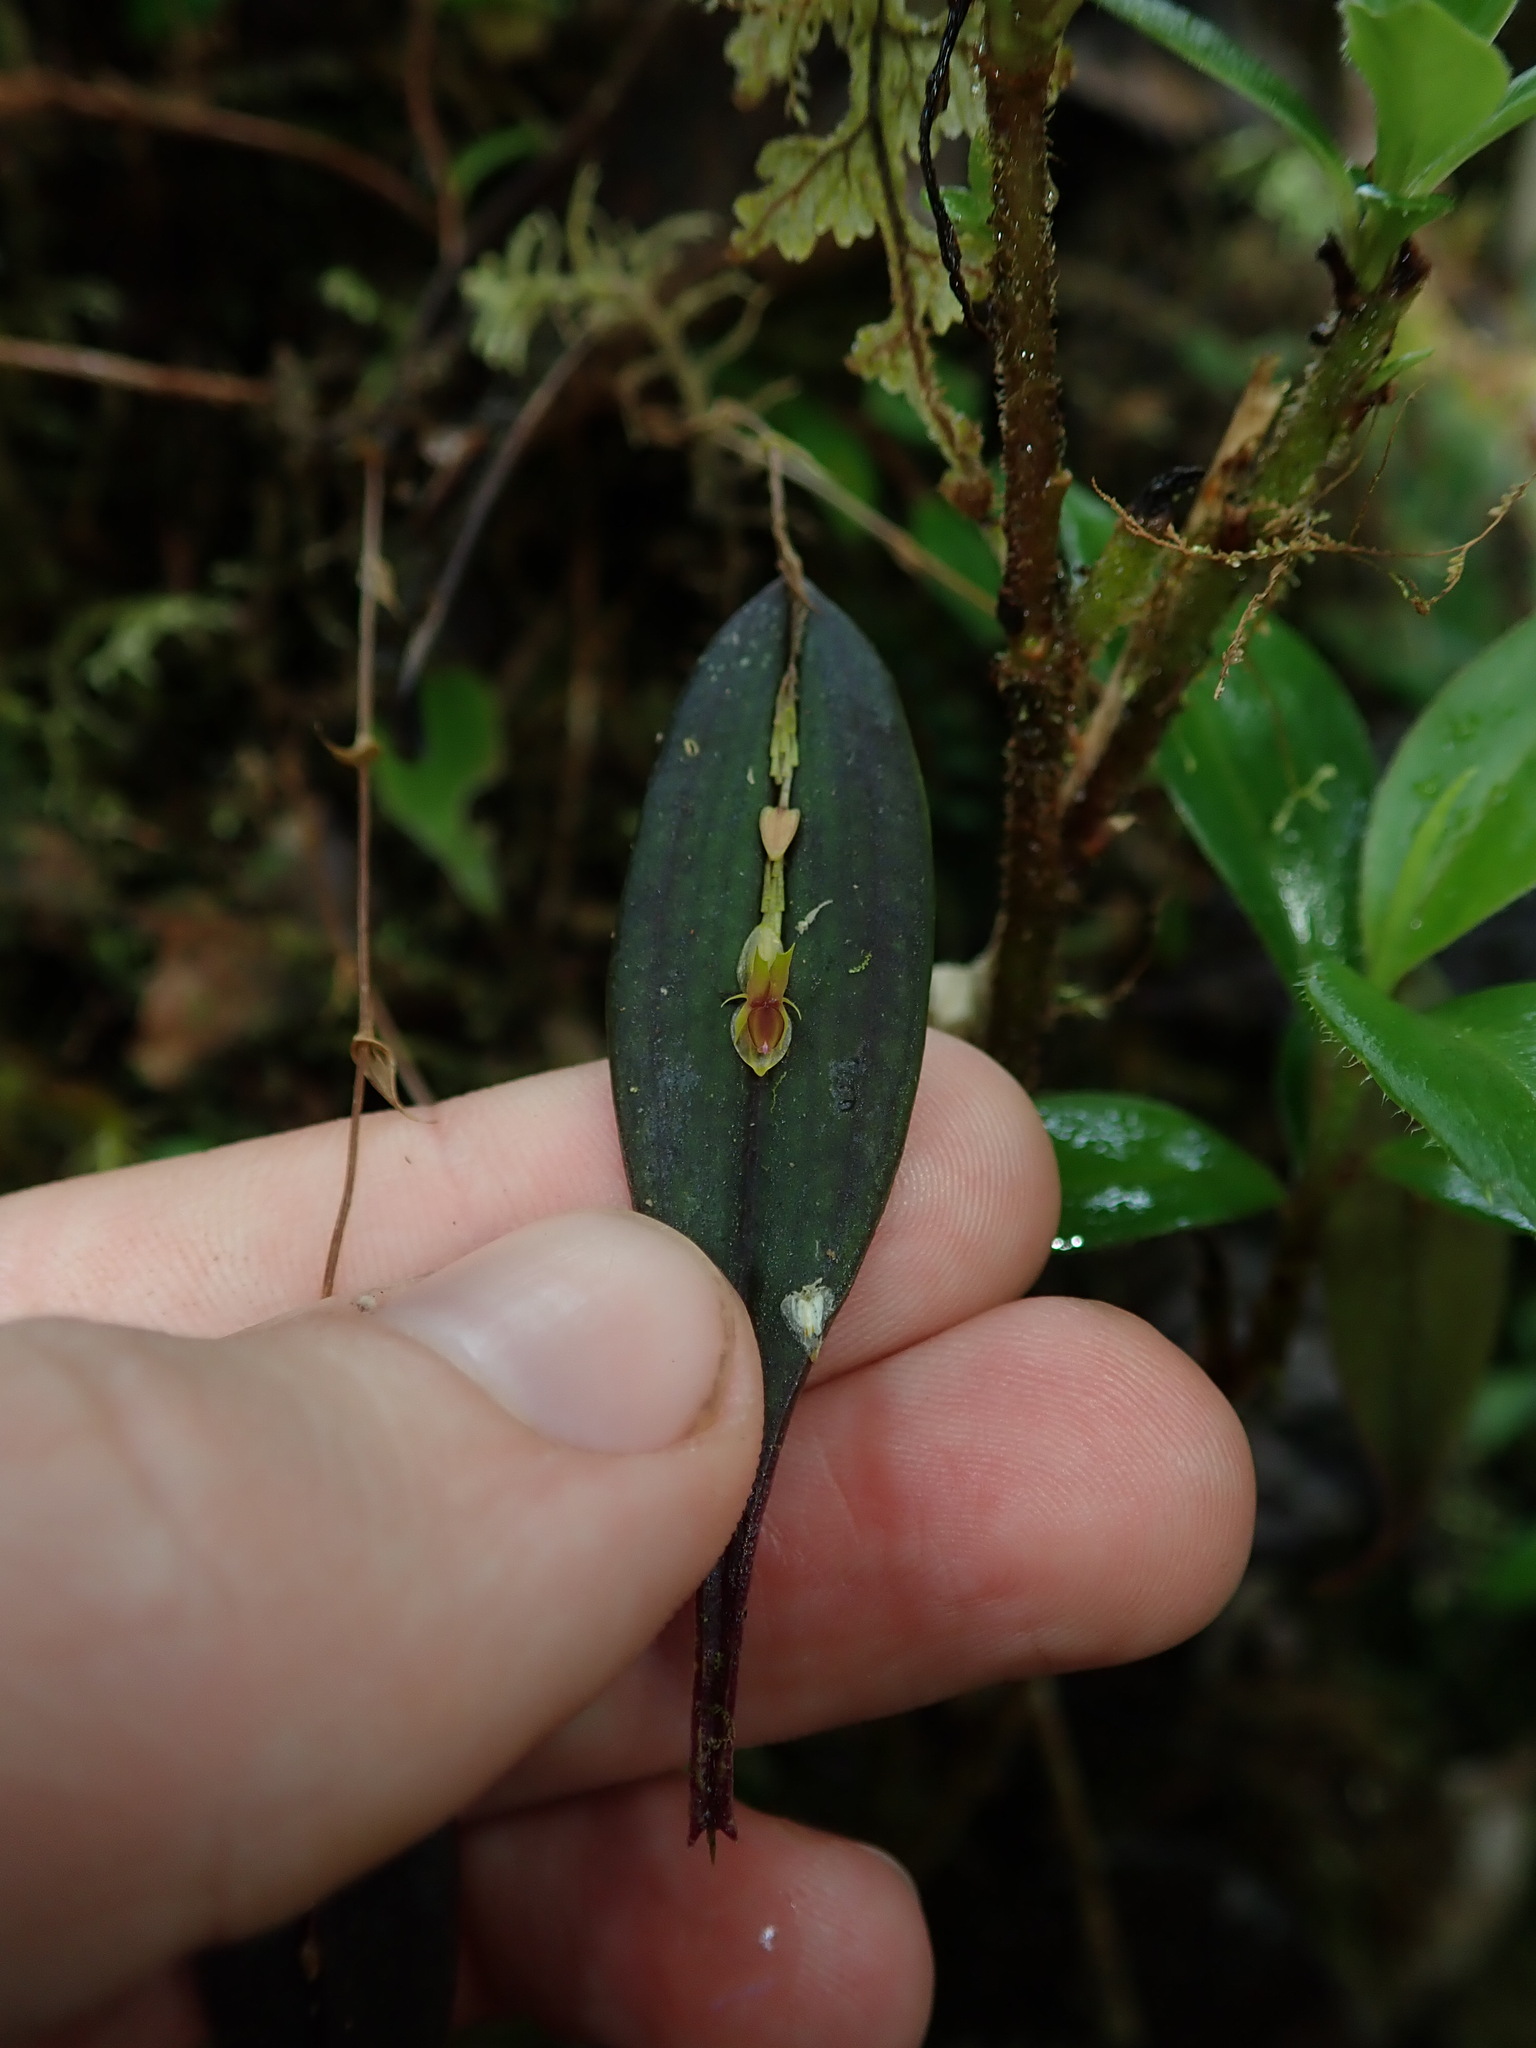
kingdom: Plantae
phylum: Tracheophyta
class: Liliopsida
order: Asparagales
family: Orchidaceae
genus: Lepanthes
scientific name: Lepanthes mucronata
